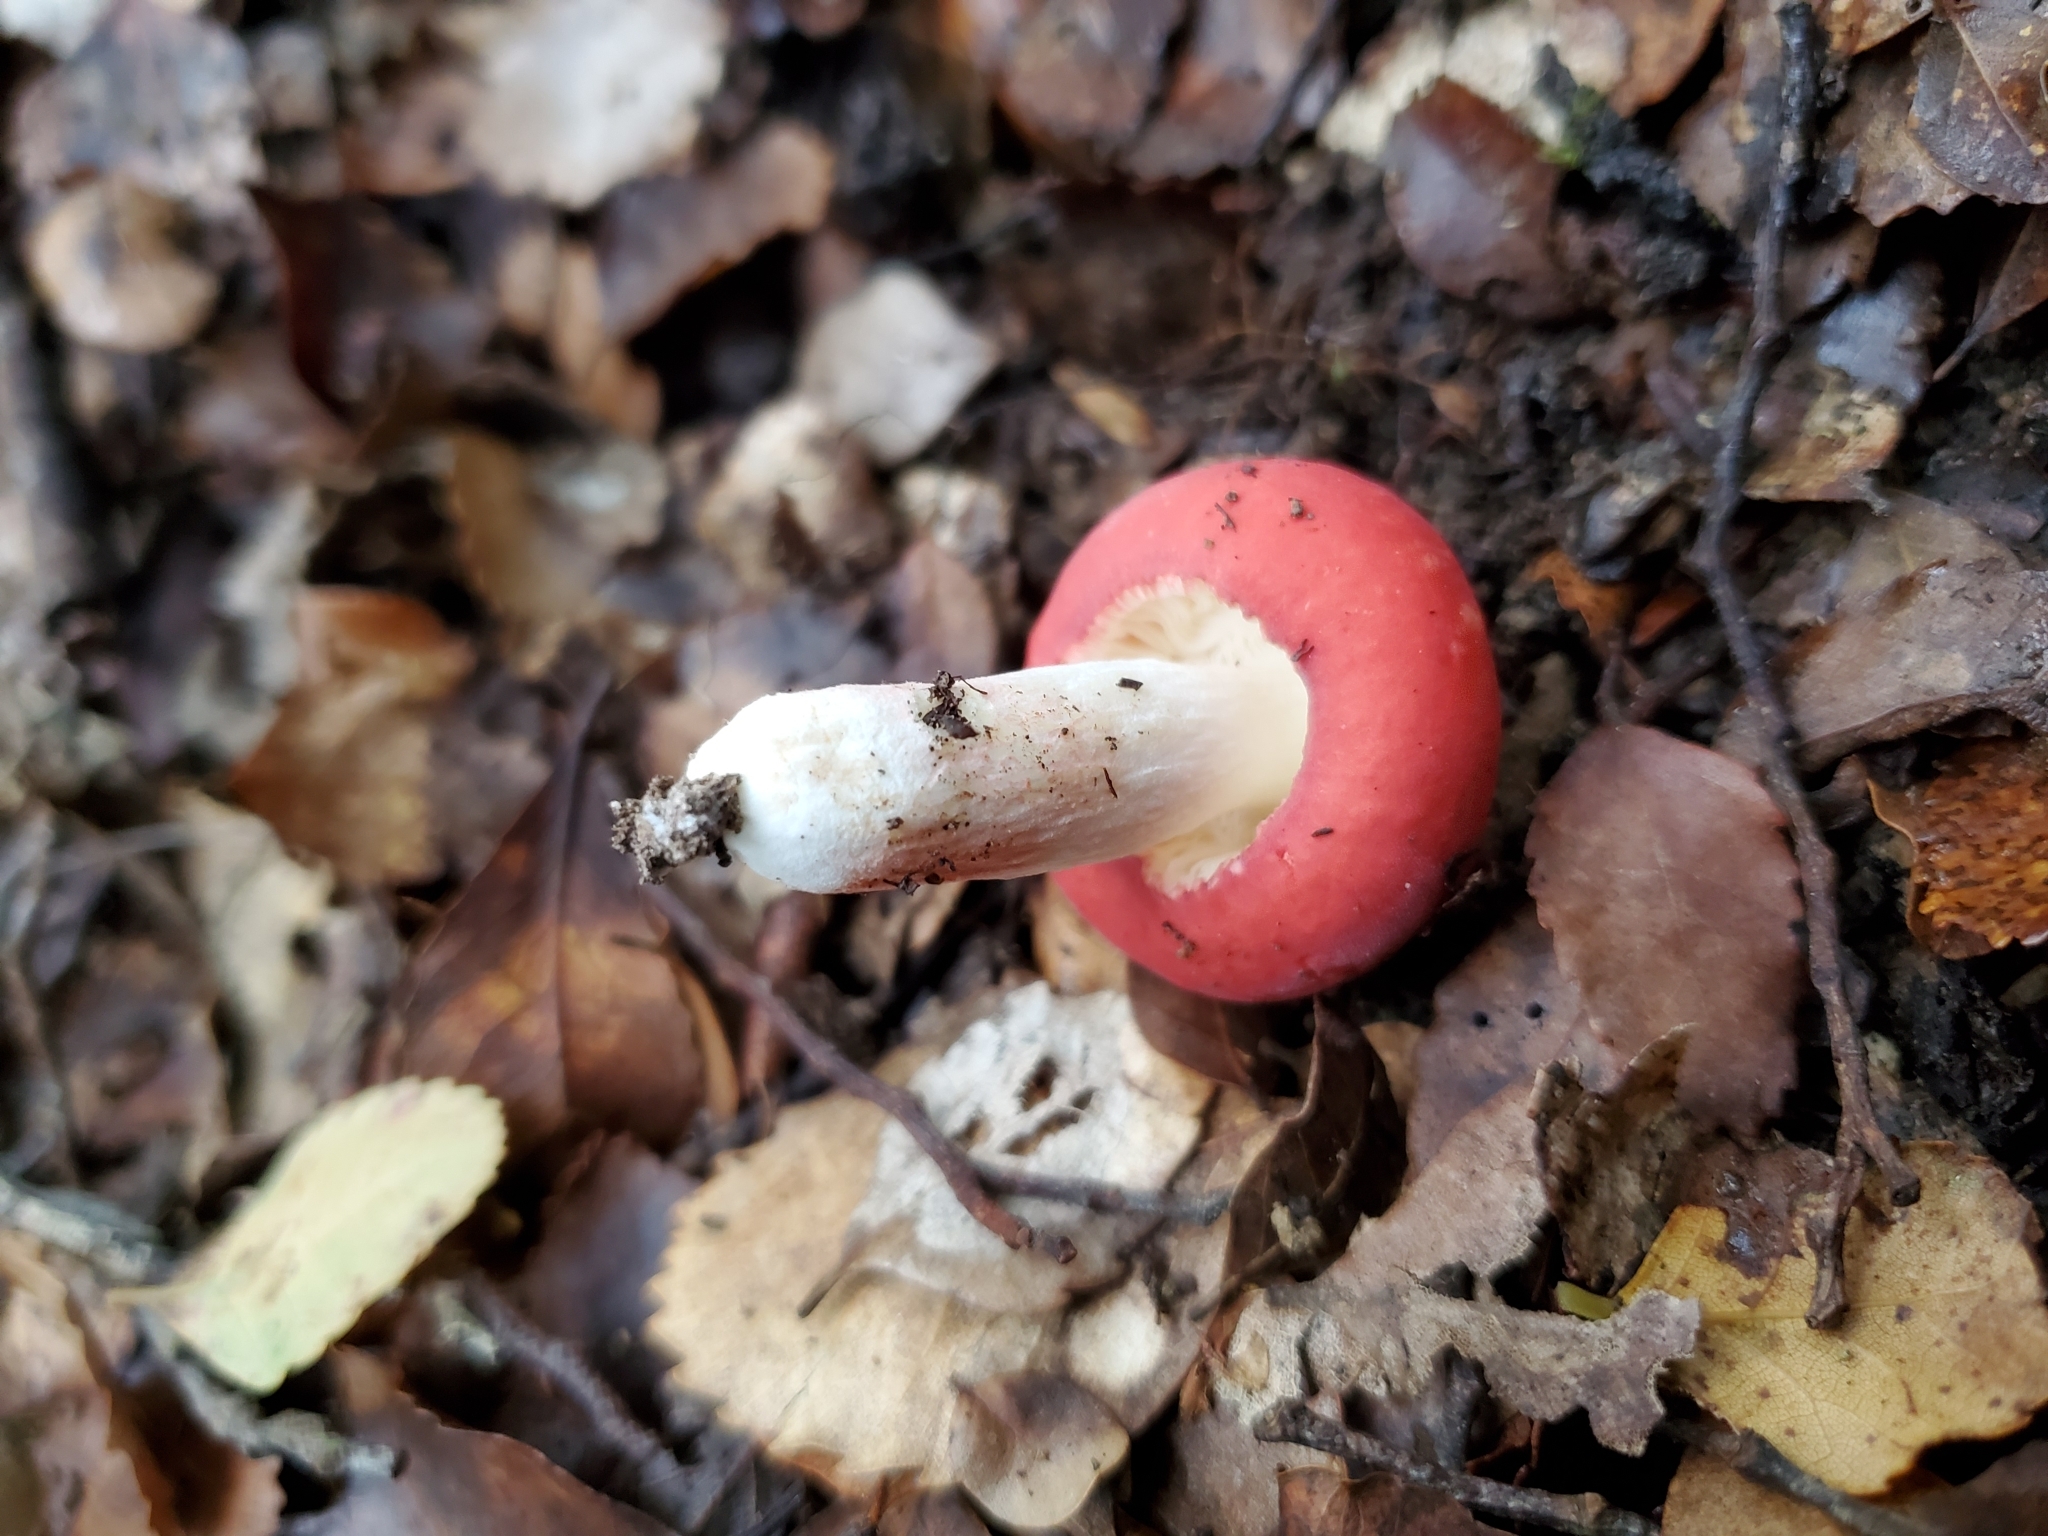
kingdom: Fungi
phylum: Basidiomycota
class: Agaricomycetes
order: Russulales
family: Russulaceae
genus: Russula
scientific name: Russula kermesina
